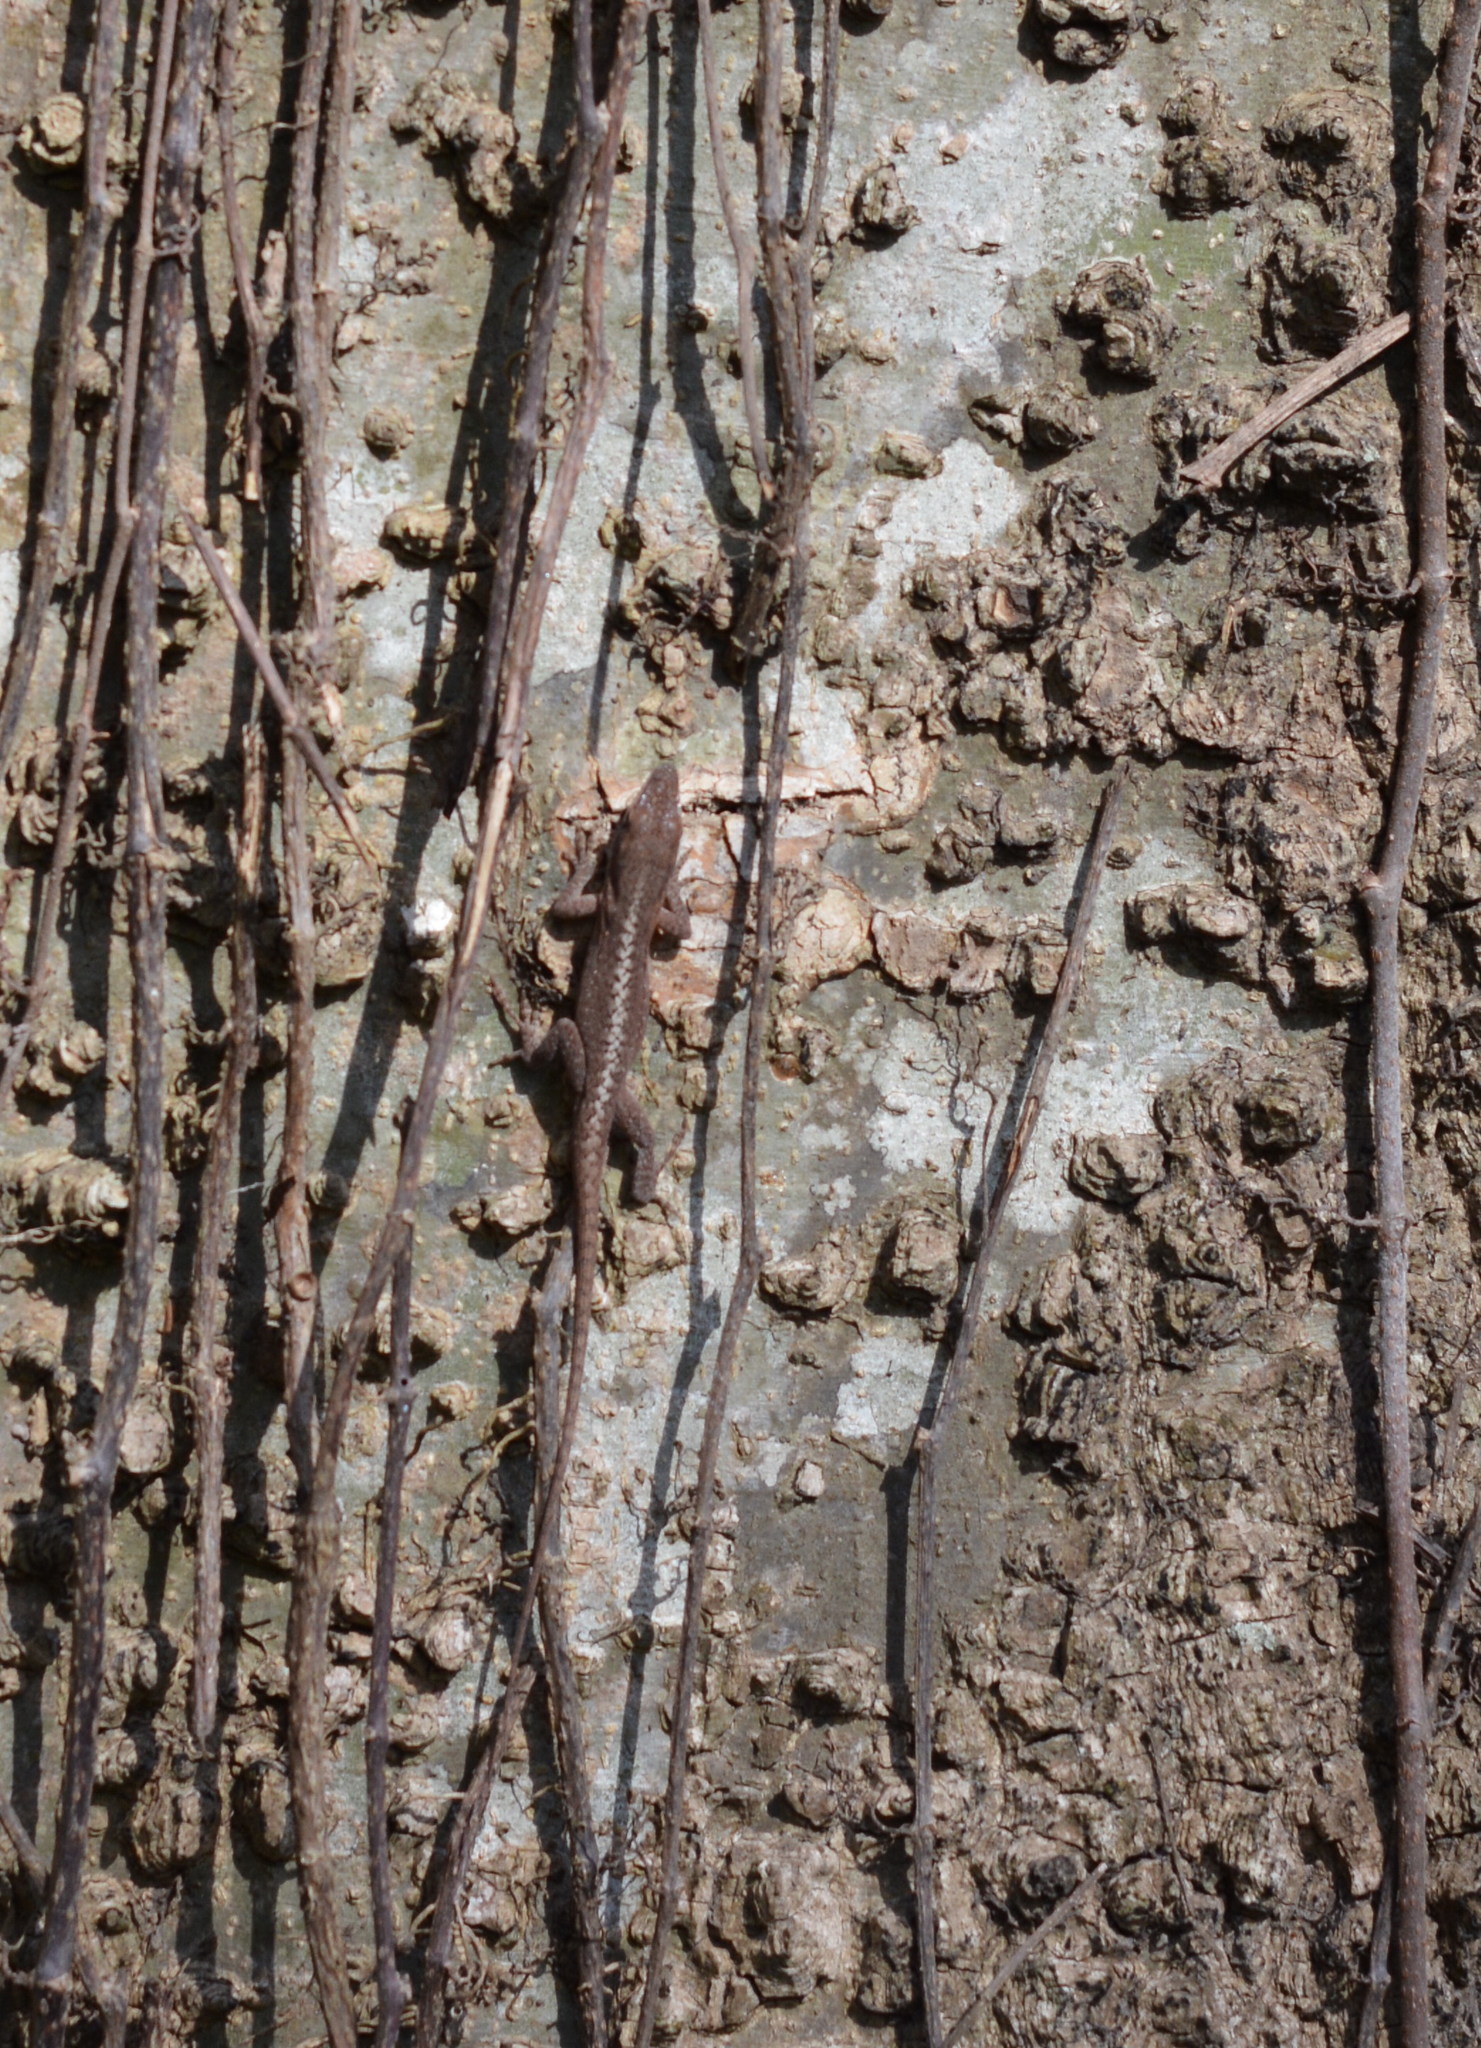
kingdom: Animalia
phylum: Chordata
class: Squamata
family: Dactyloidae
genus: Anolis
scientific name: Anolis carolinensis
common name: Green anole
